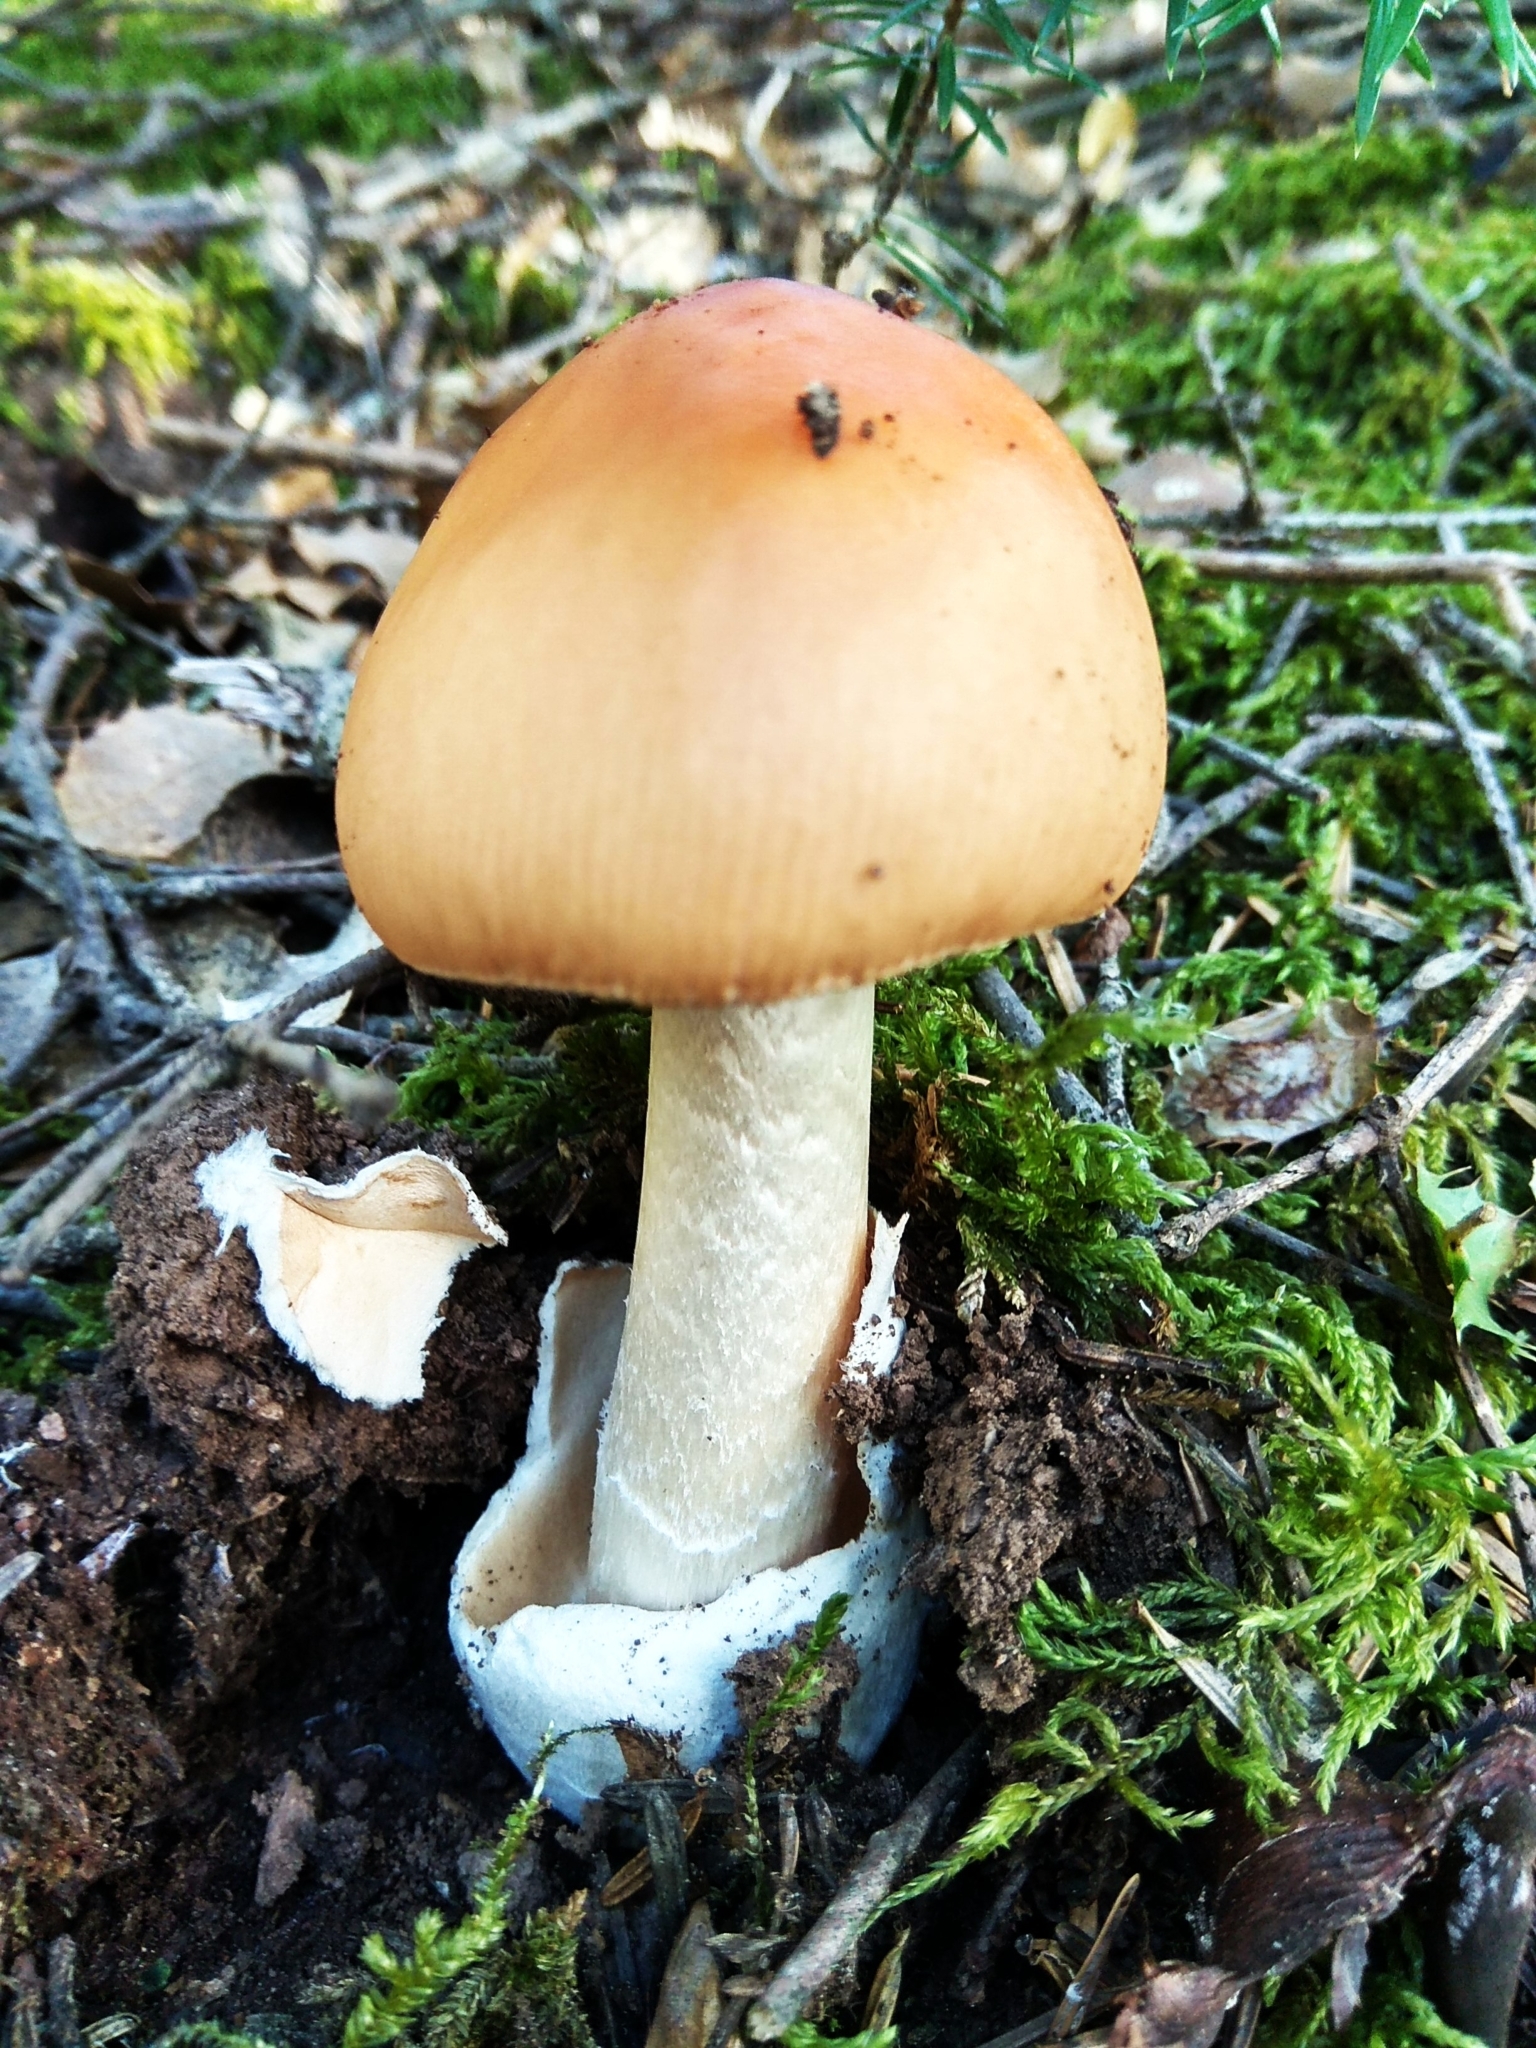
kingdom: Fungi
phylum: Basidiomycota
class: Agaricomycetes
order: Agaricales
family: Amanitaceae
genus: Amanita
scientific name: Amanita crocea
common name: Orange grisette
